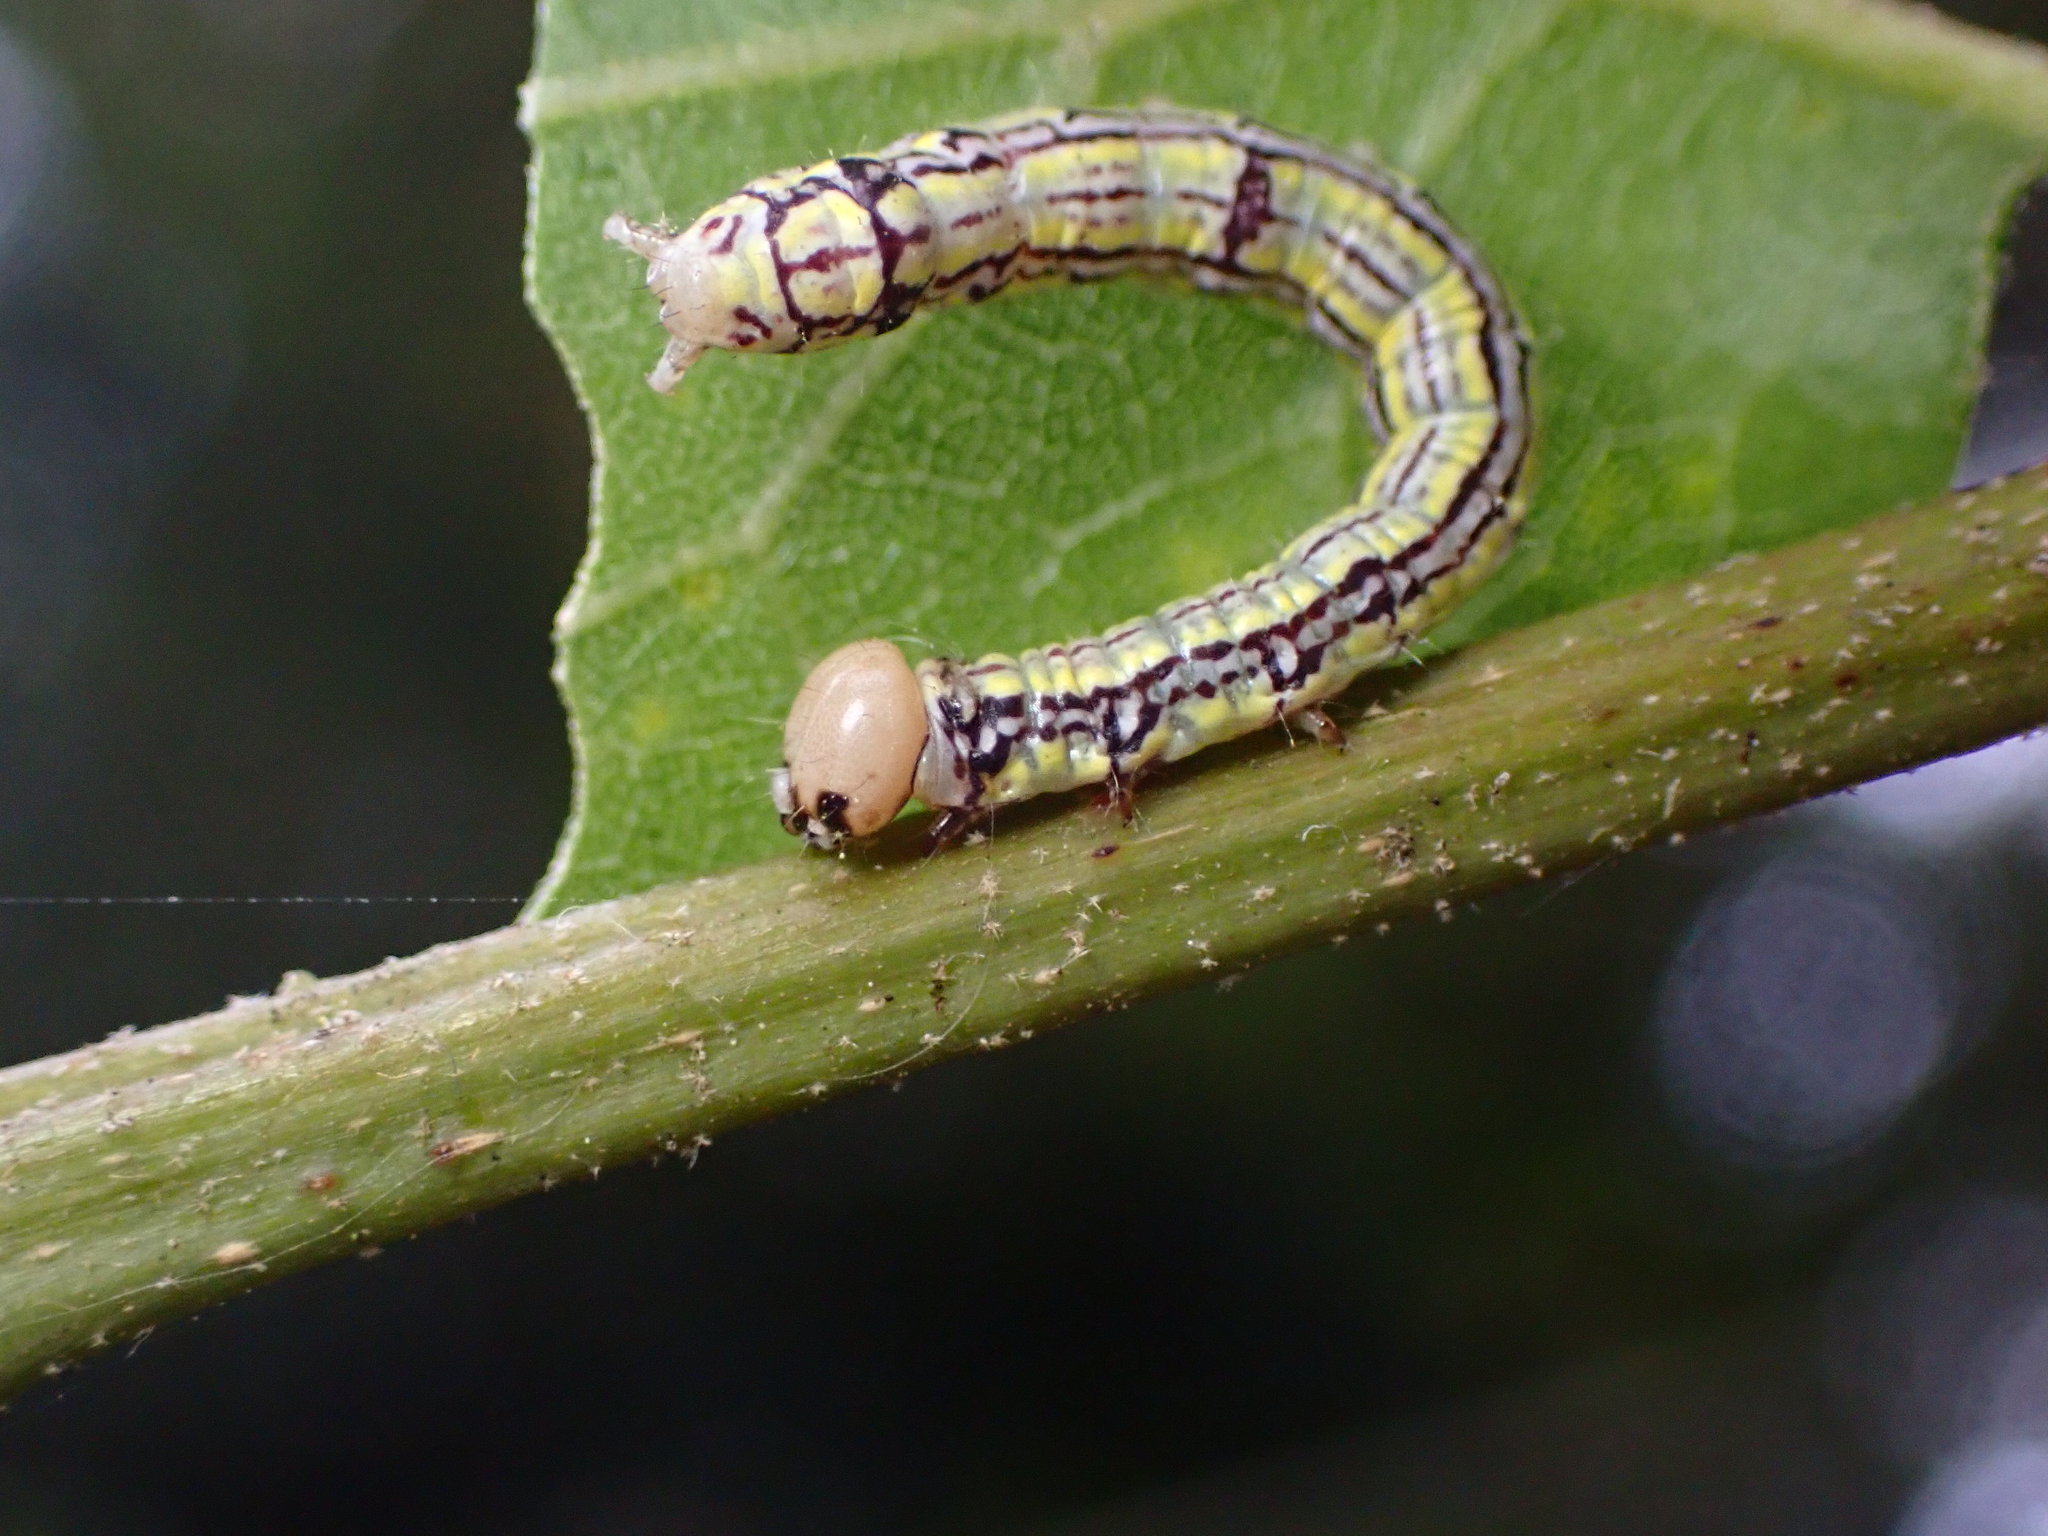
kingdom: Animalia
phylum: Arthropoda
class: Insecta
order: Lepidoptera
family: Notodontidae
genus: Phryganidia
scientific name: Phryganidia californica
